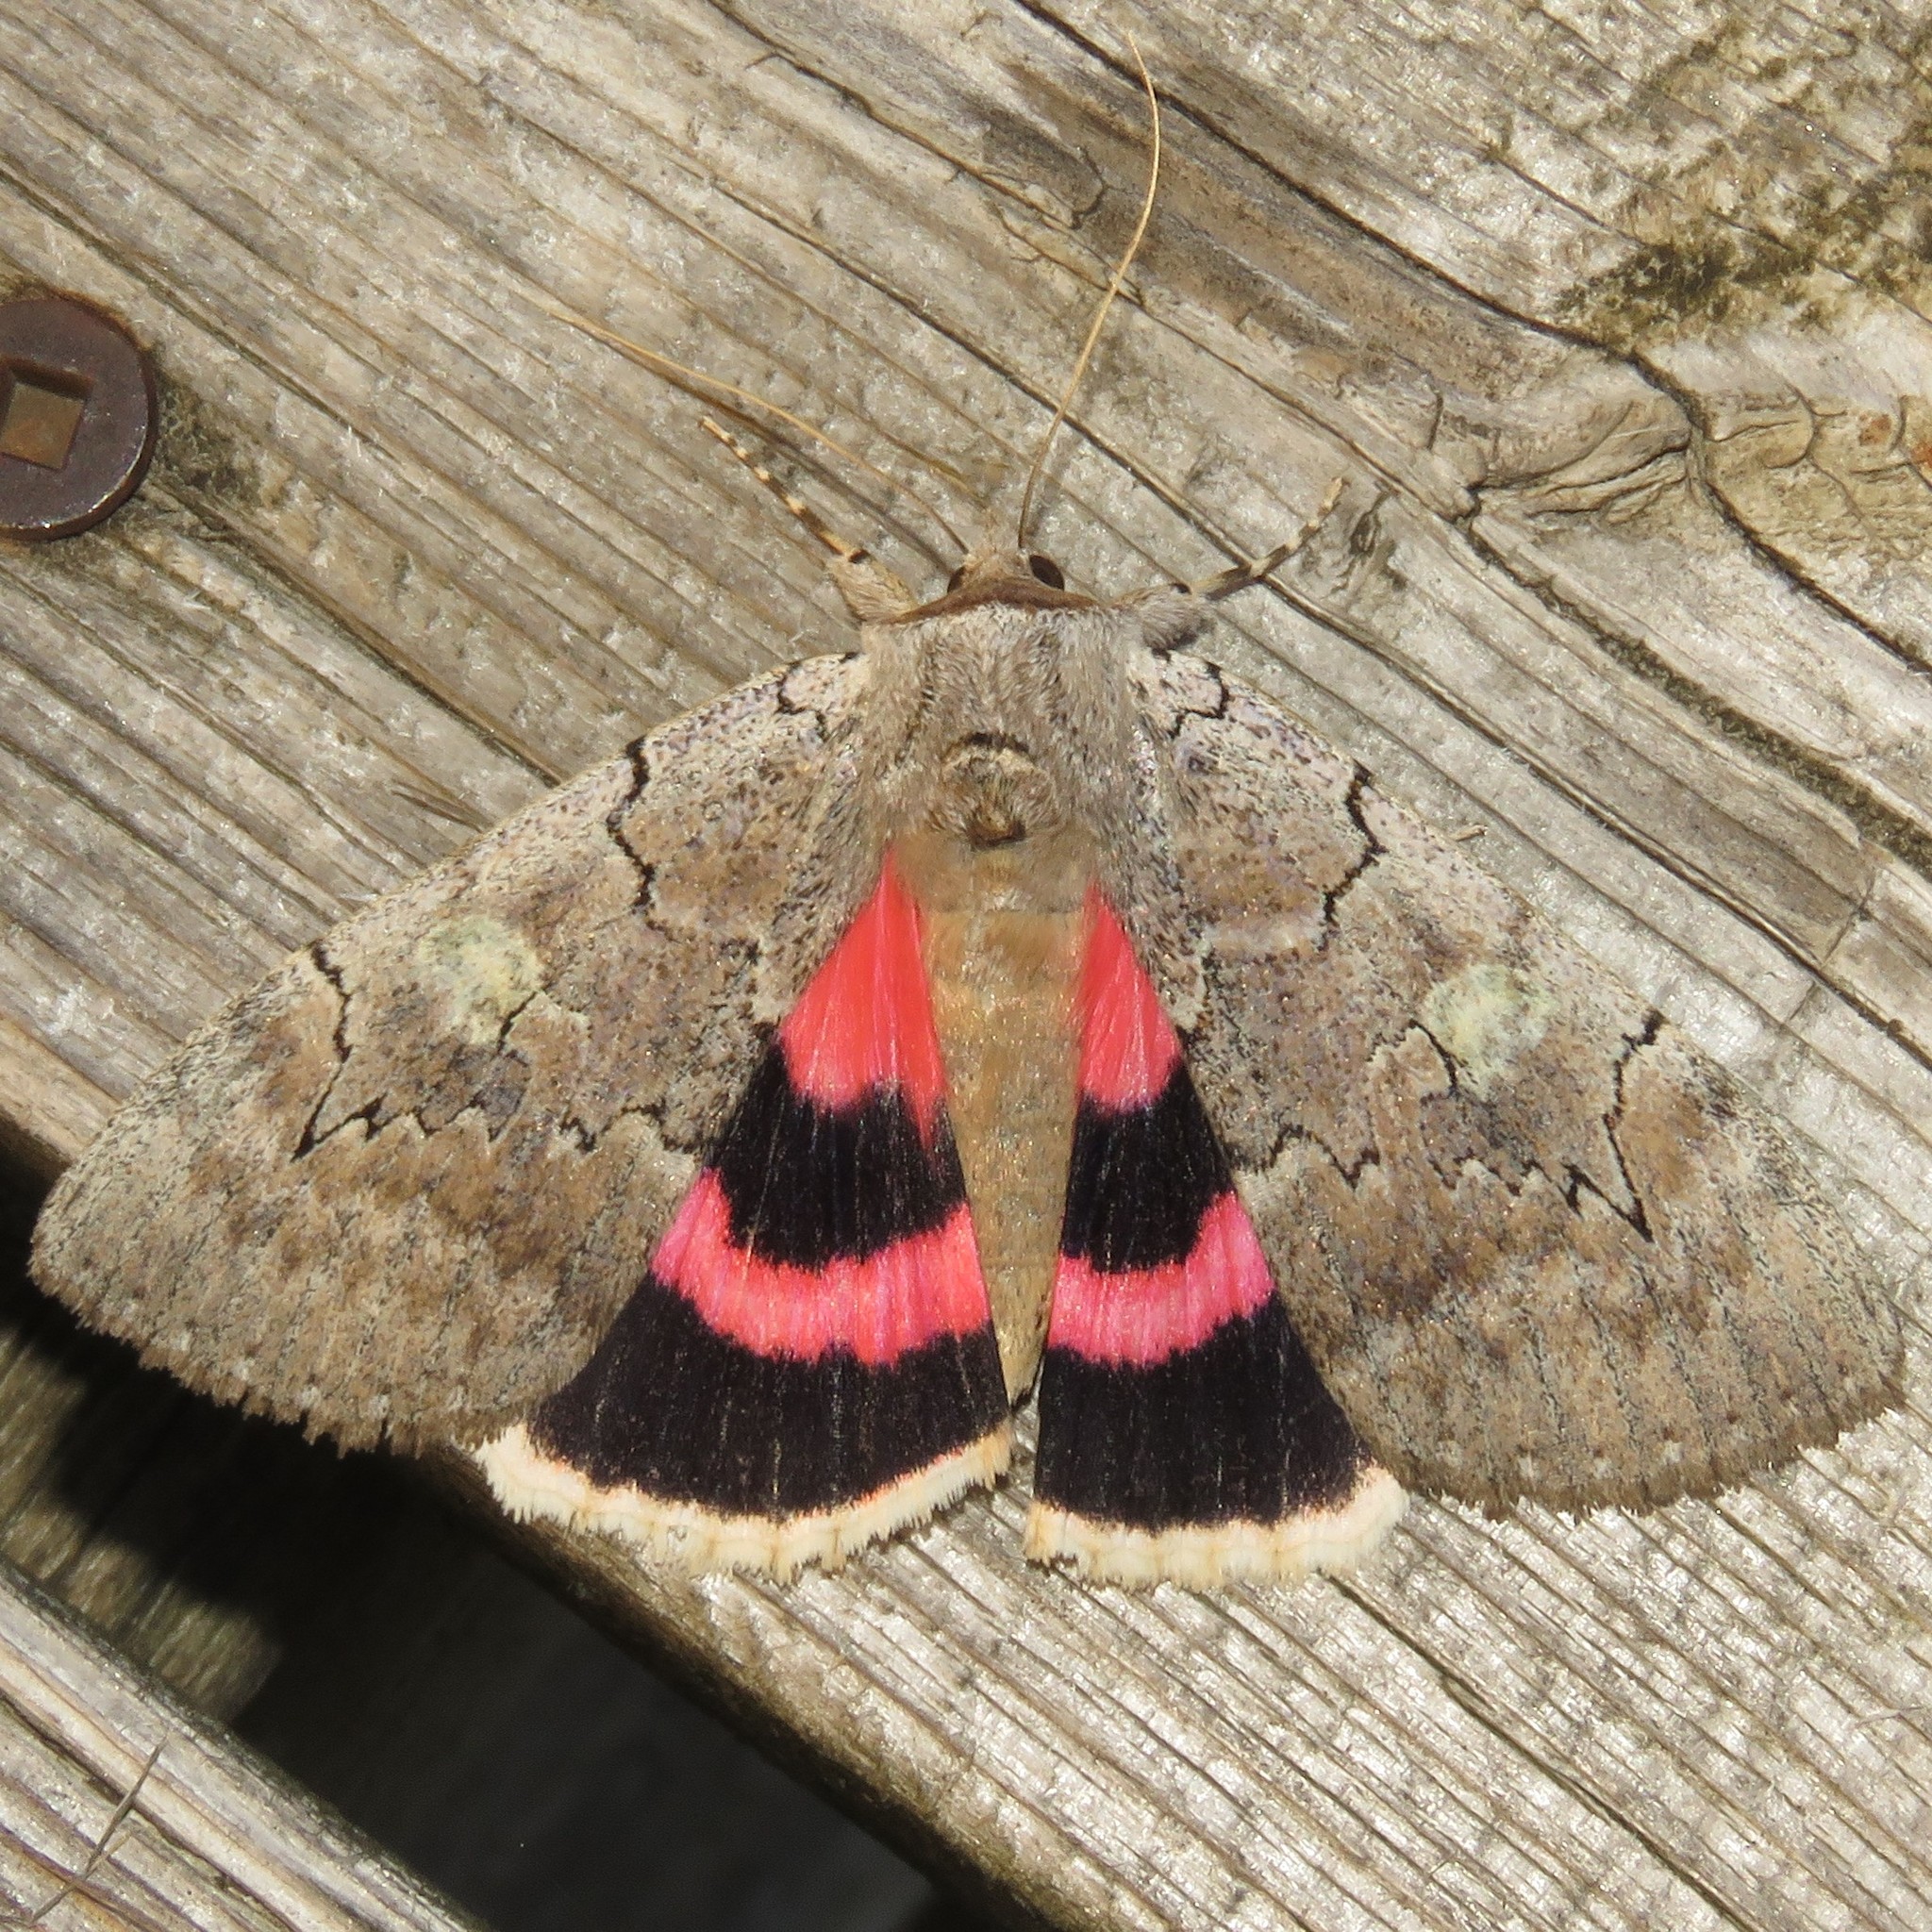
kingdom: Animalia
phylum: Arthropoda
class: Insecta
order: Lepidoptera
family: Erebidae
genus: Catocala
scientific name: Catocala concumbens
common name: Pink underwing
